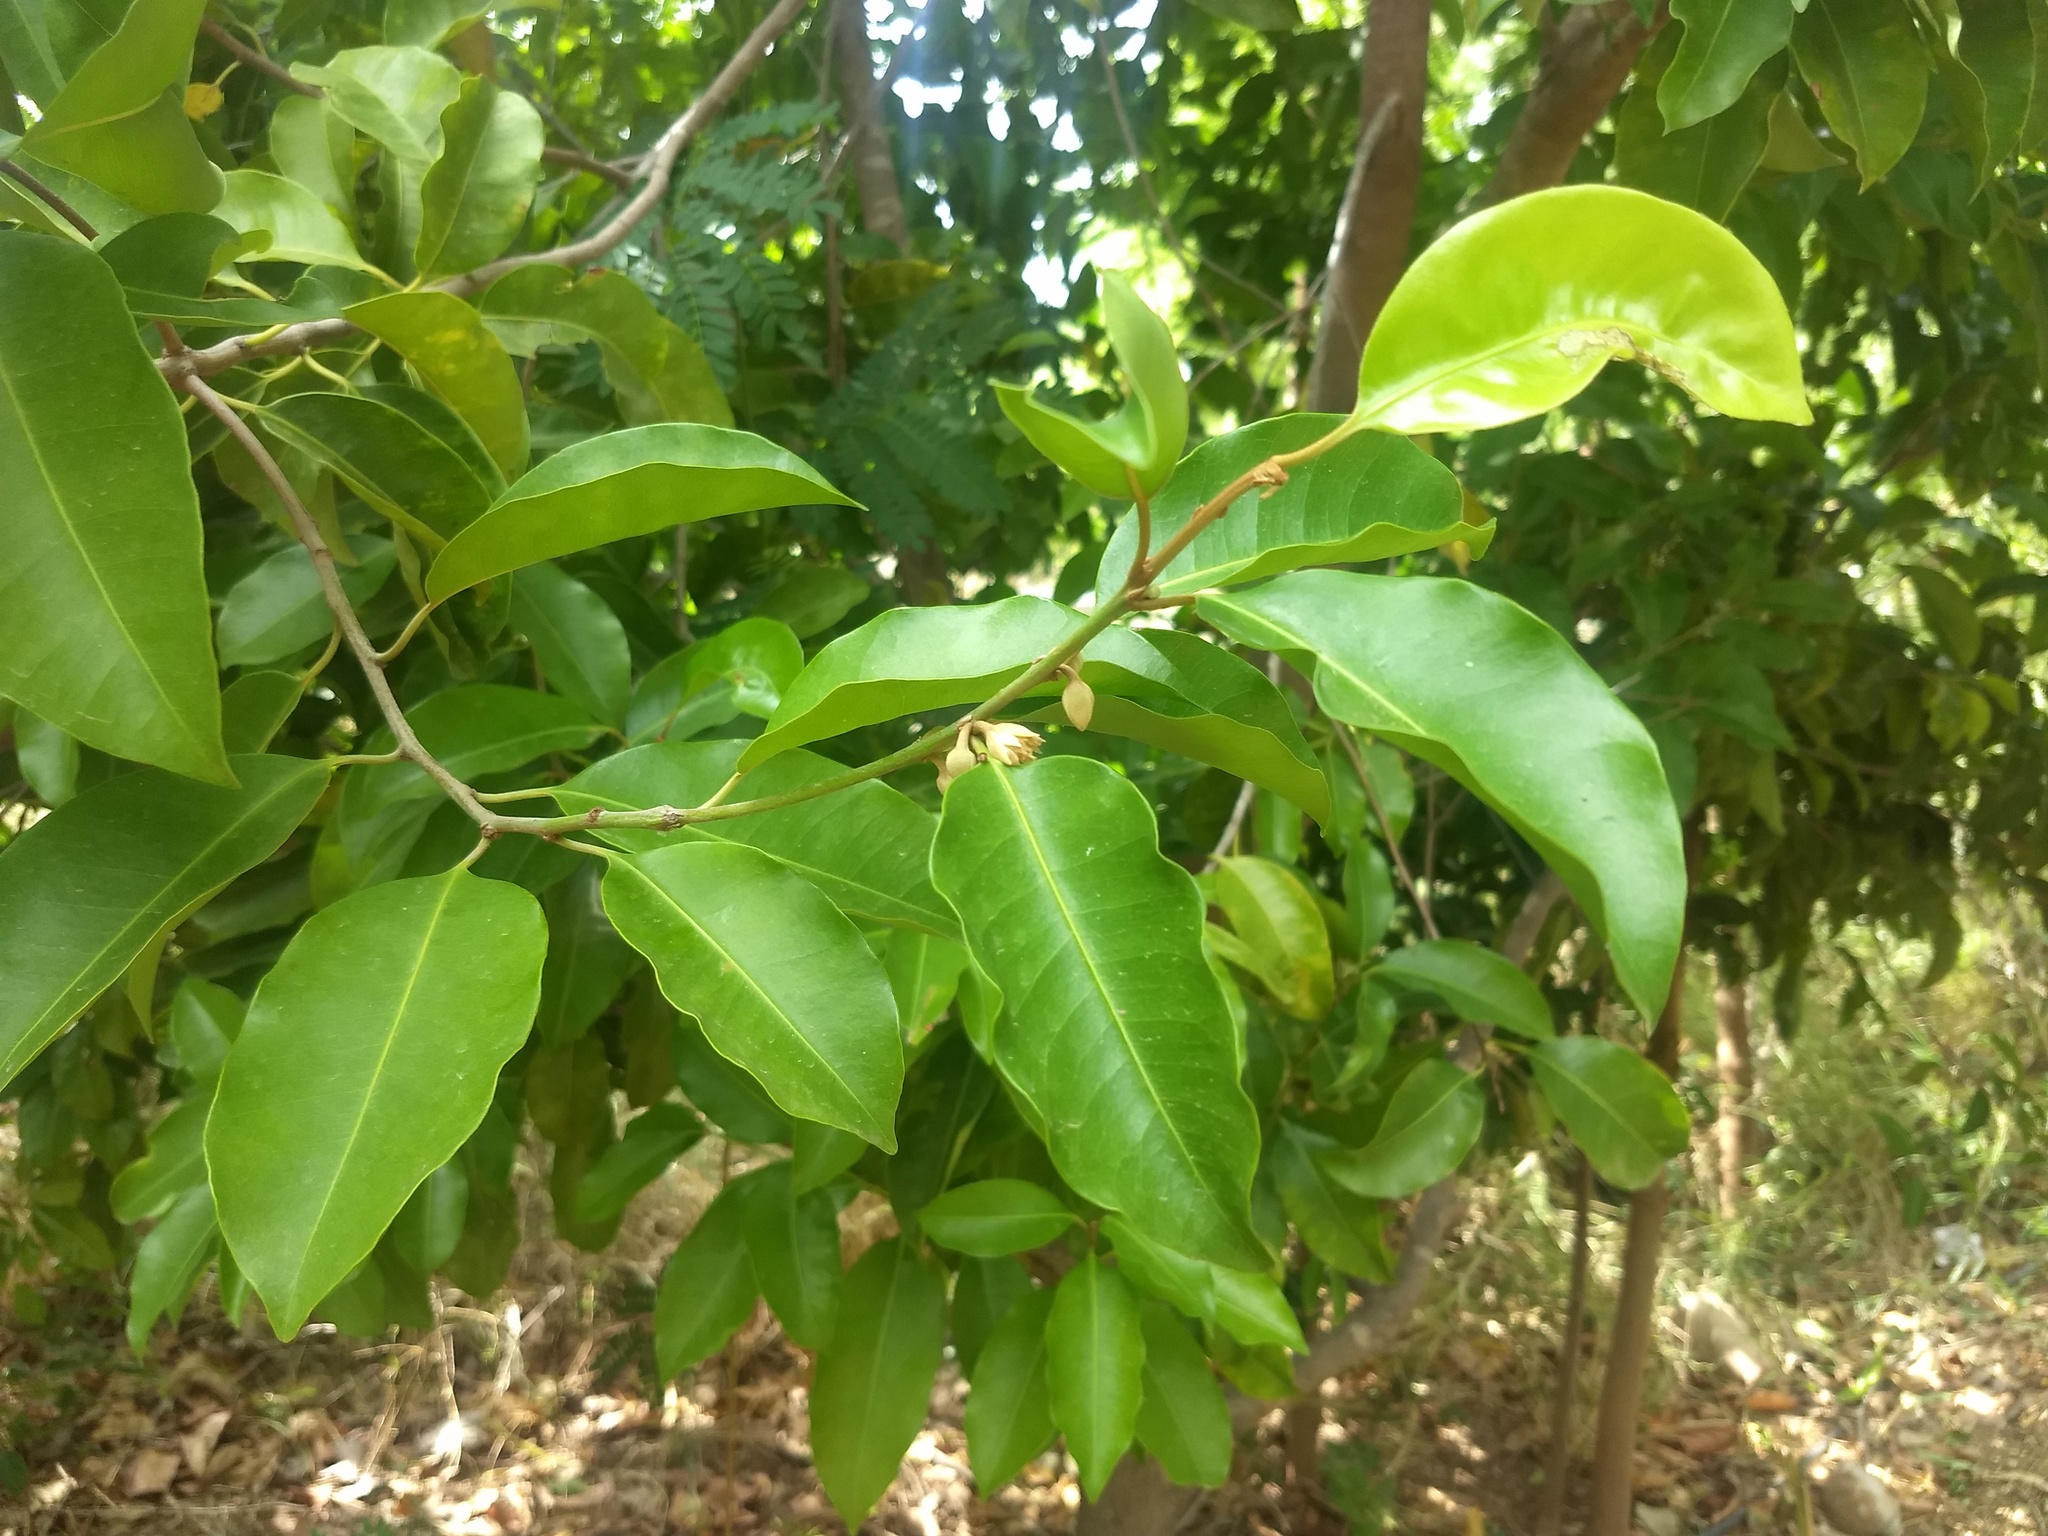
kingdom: Plantae
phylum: Tracheophyta
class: Magnoliopsida
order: Ericales
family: Sapotaceae
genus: Mimusops
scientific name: Mimusops elengi
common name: Spanish cherry
